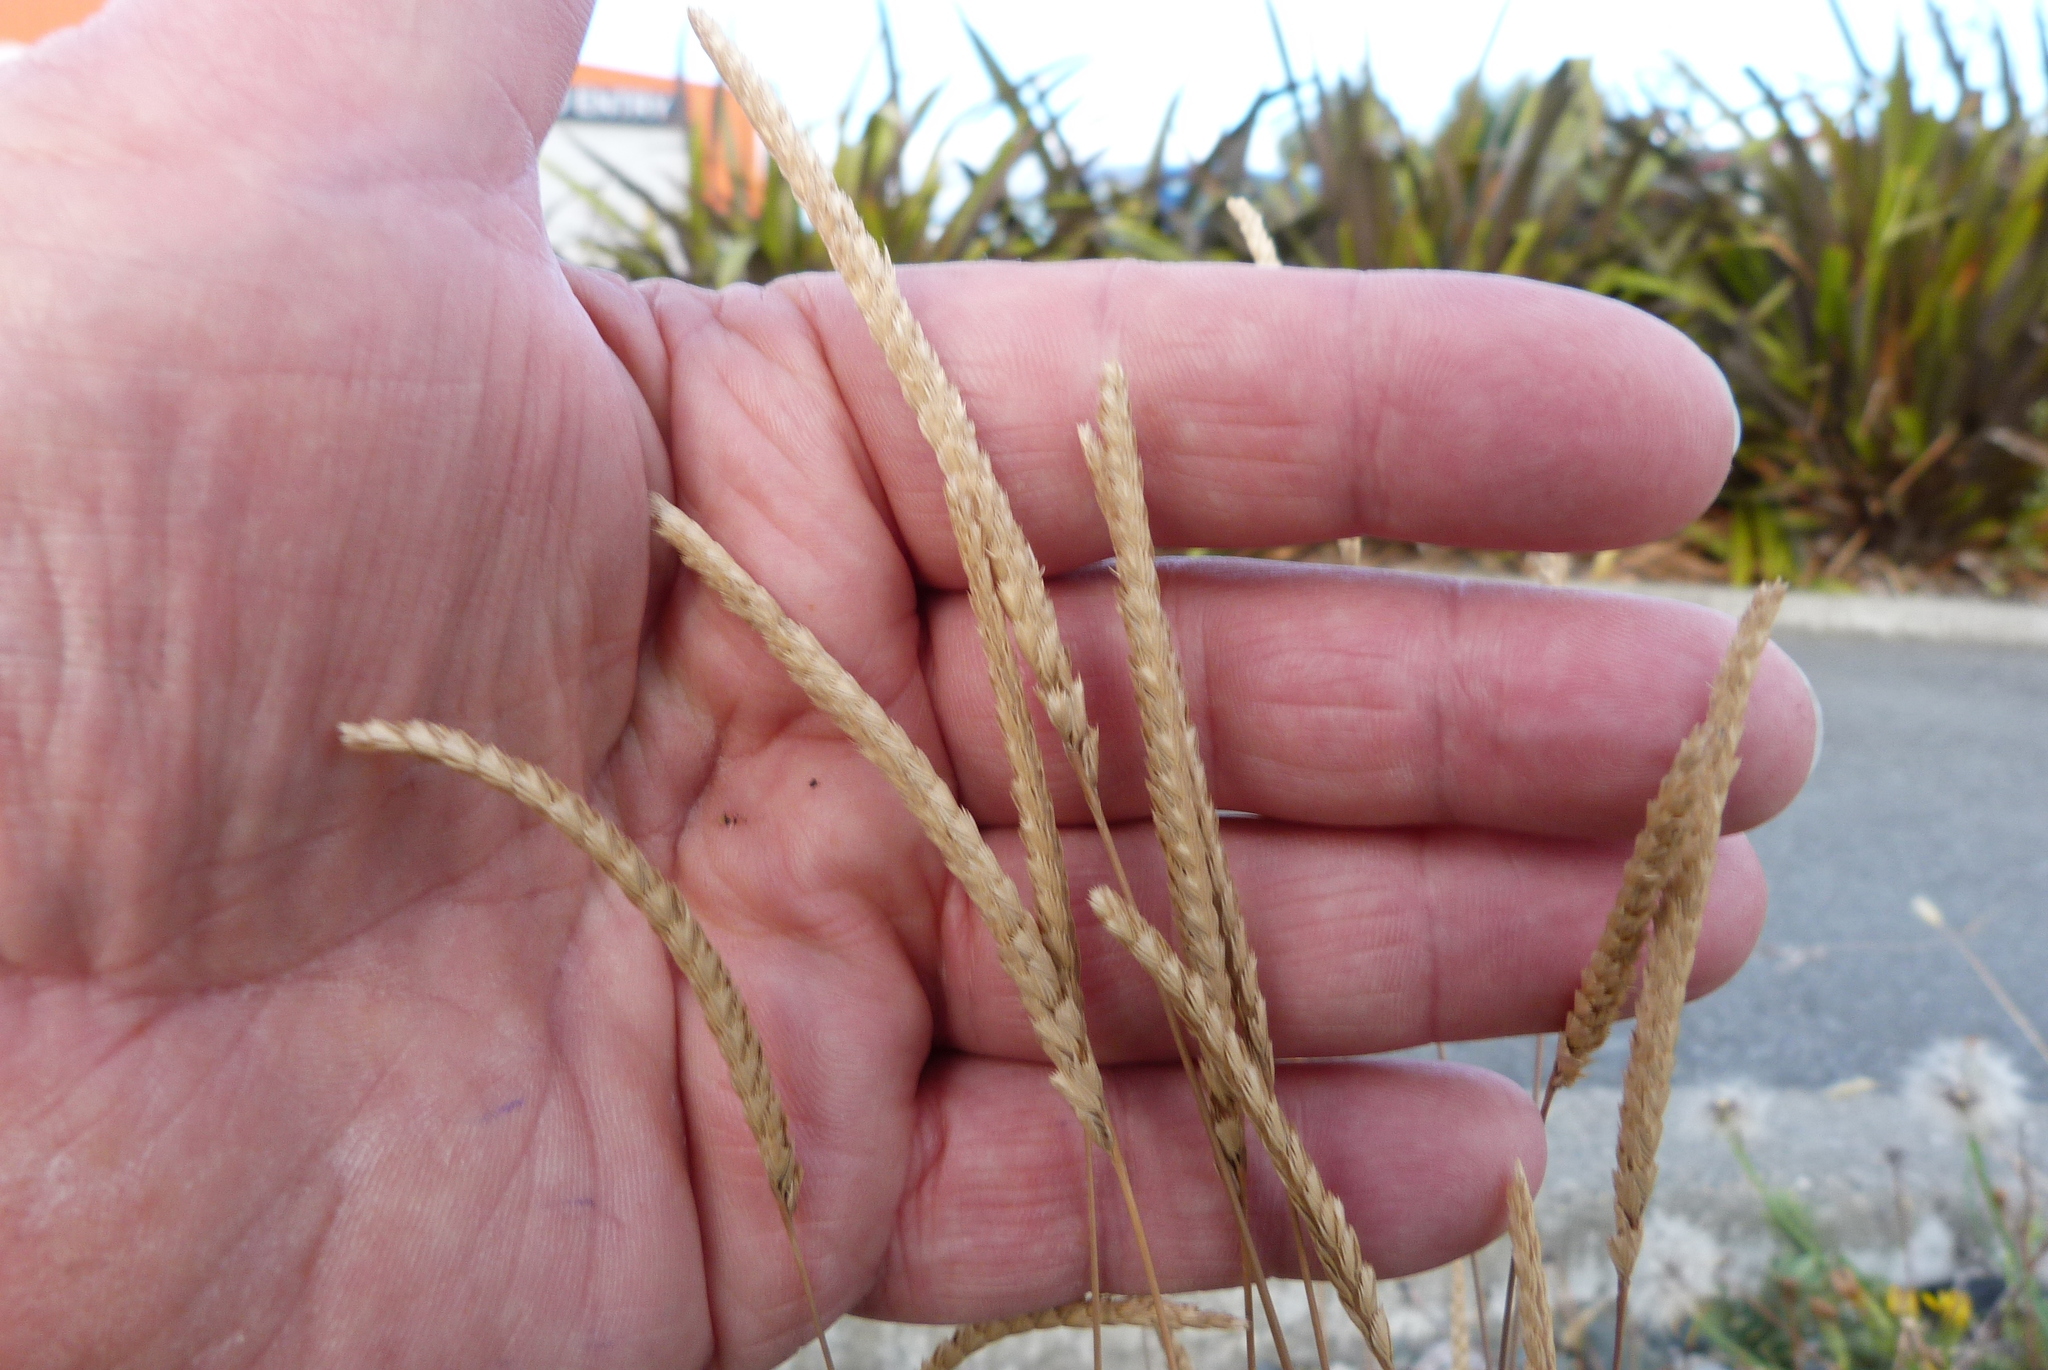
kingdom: Plantae
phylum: Tracheophyta
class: Liliopsida
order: Poales
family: Poaceae
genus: Cynosurus
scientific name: Cynosurus cristatus
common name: Crested dog's-tail
